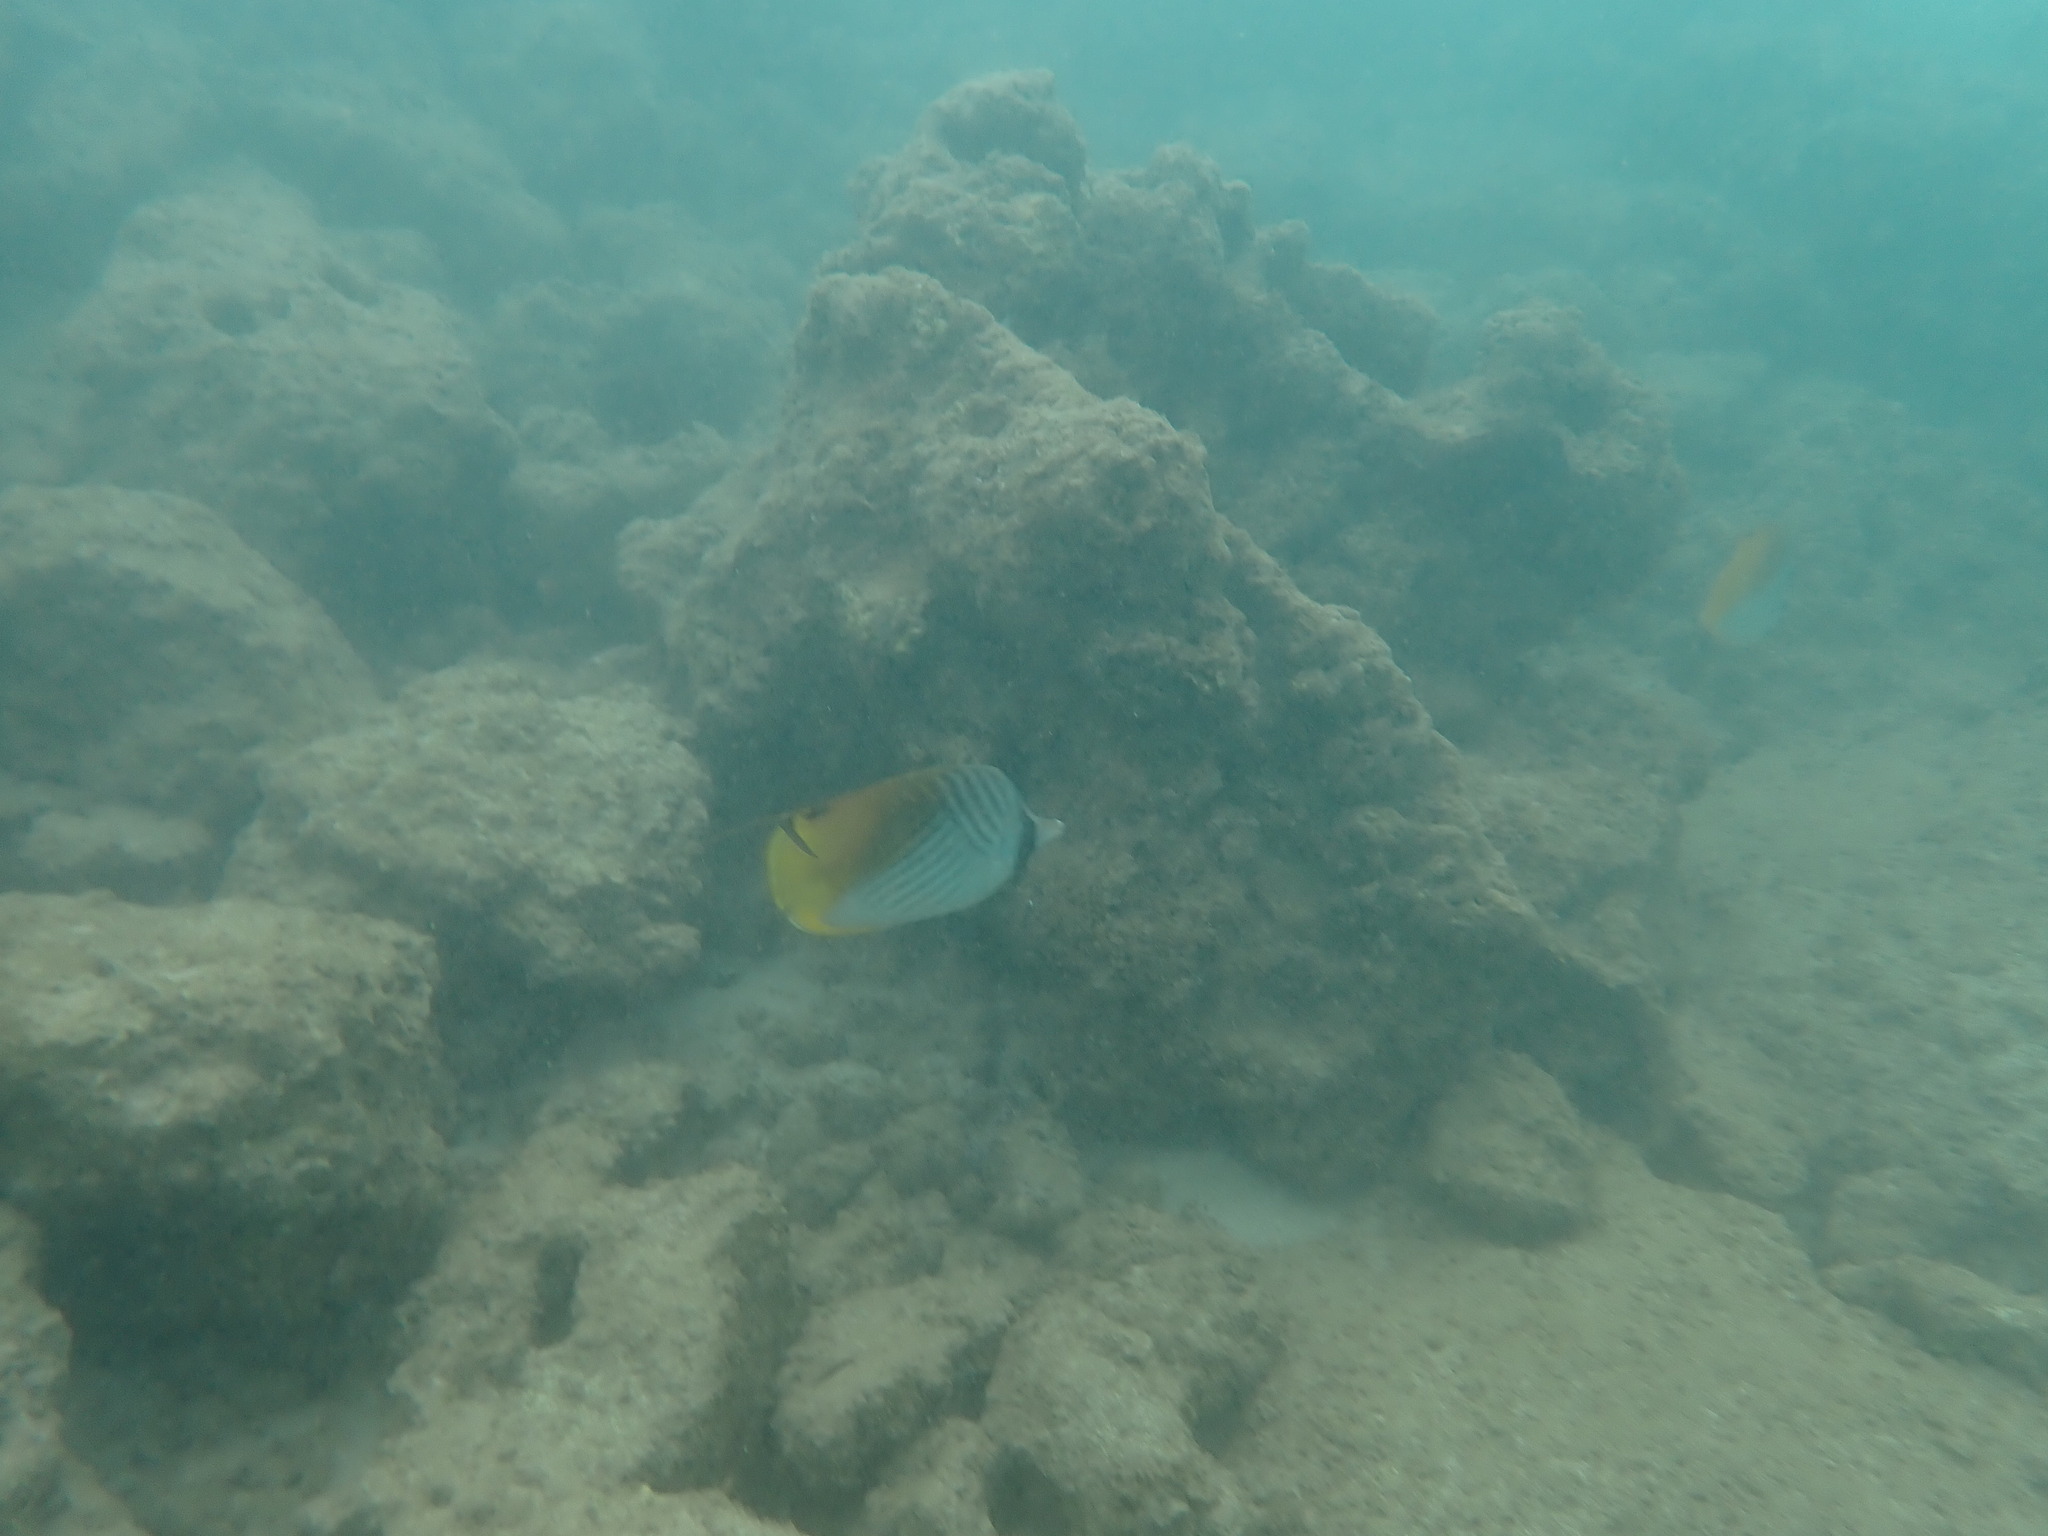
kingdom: Animalia
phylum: Chordata
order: Perciformes
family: Chaetodontidae
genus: Chaetodon
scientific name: Chaetodon auriga
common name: Threadfin butterflyfish
